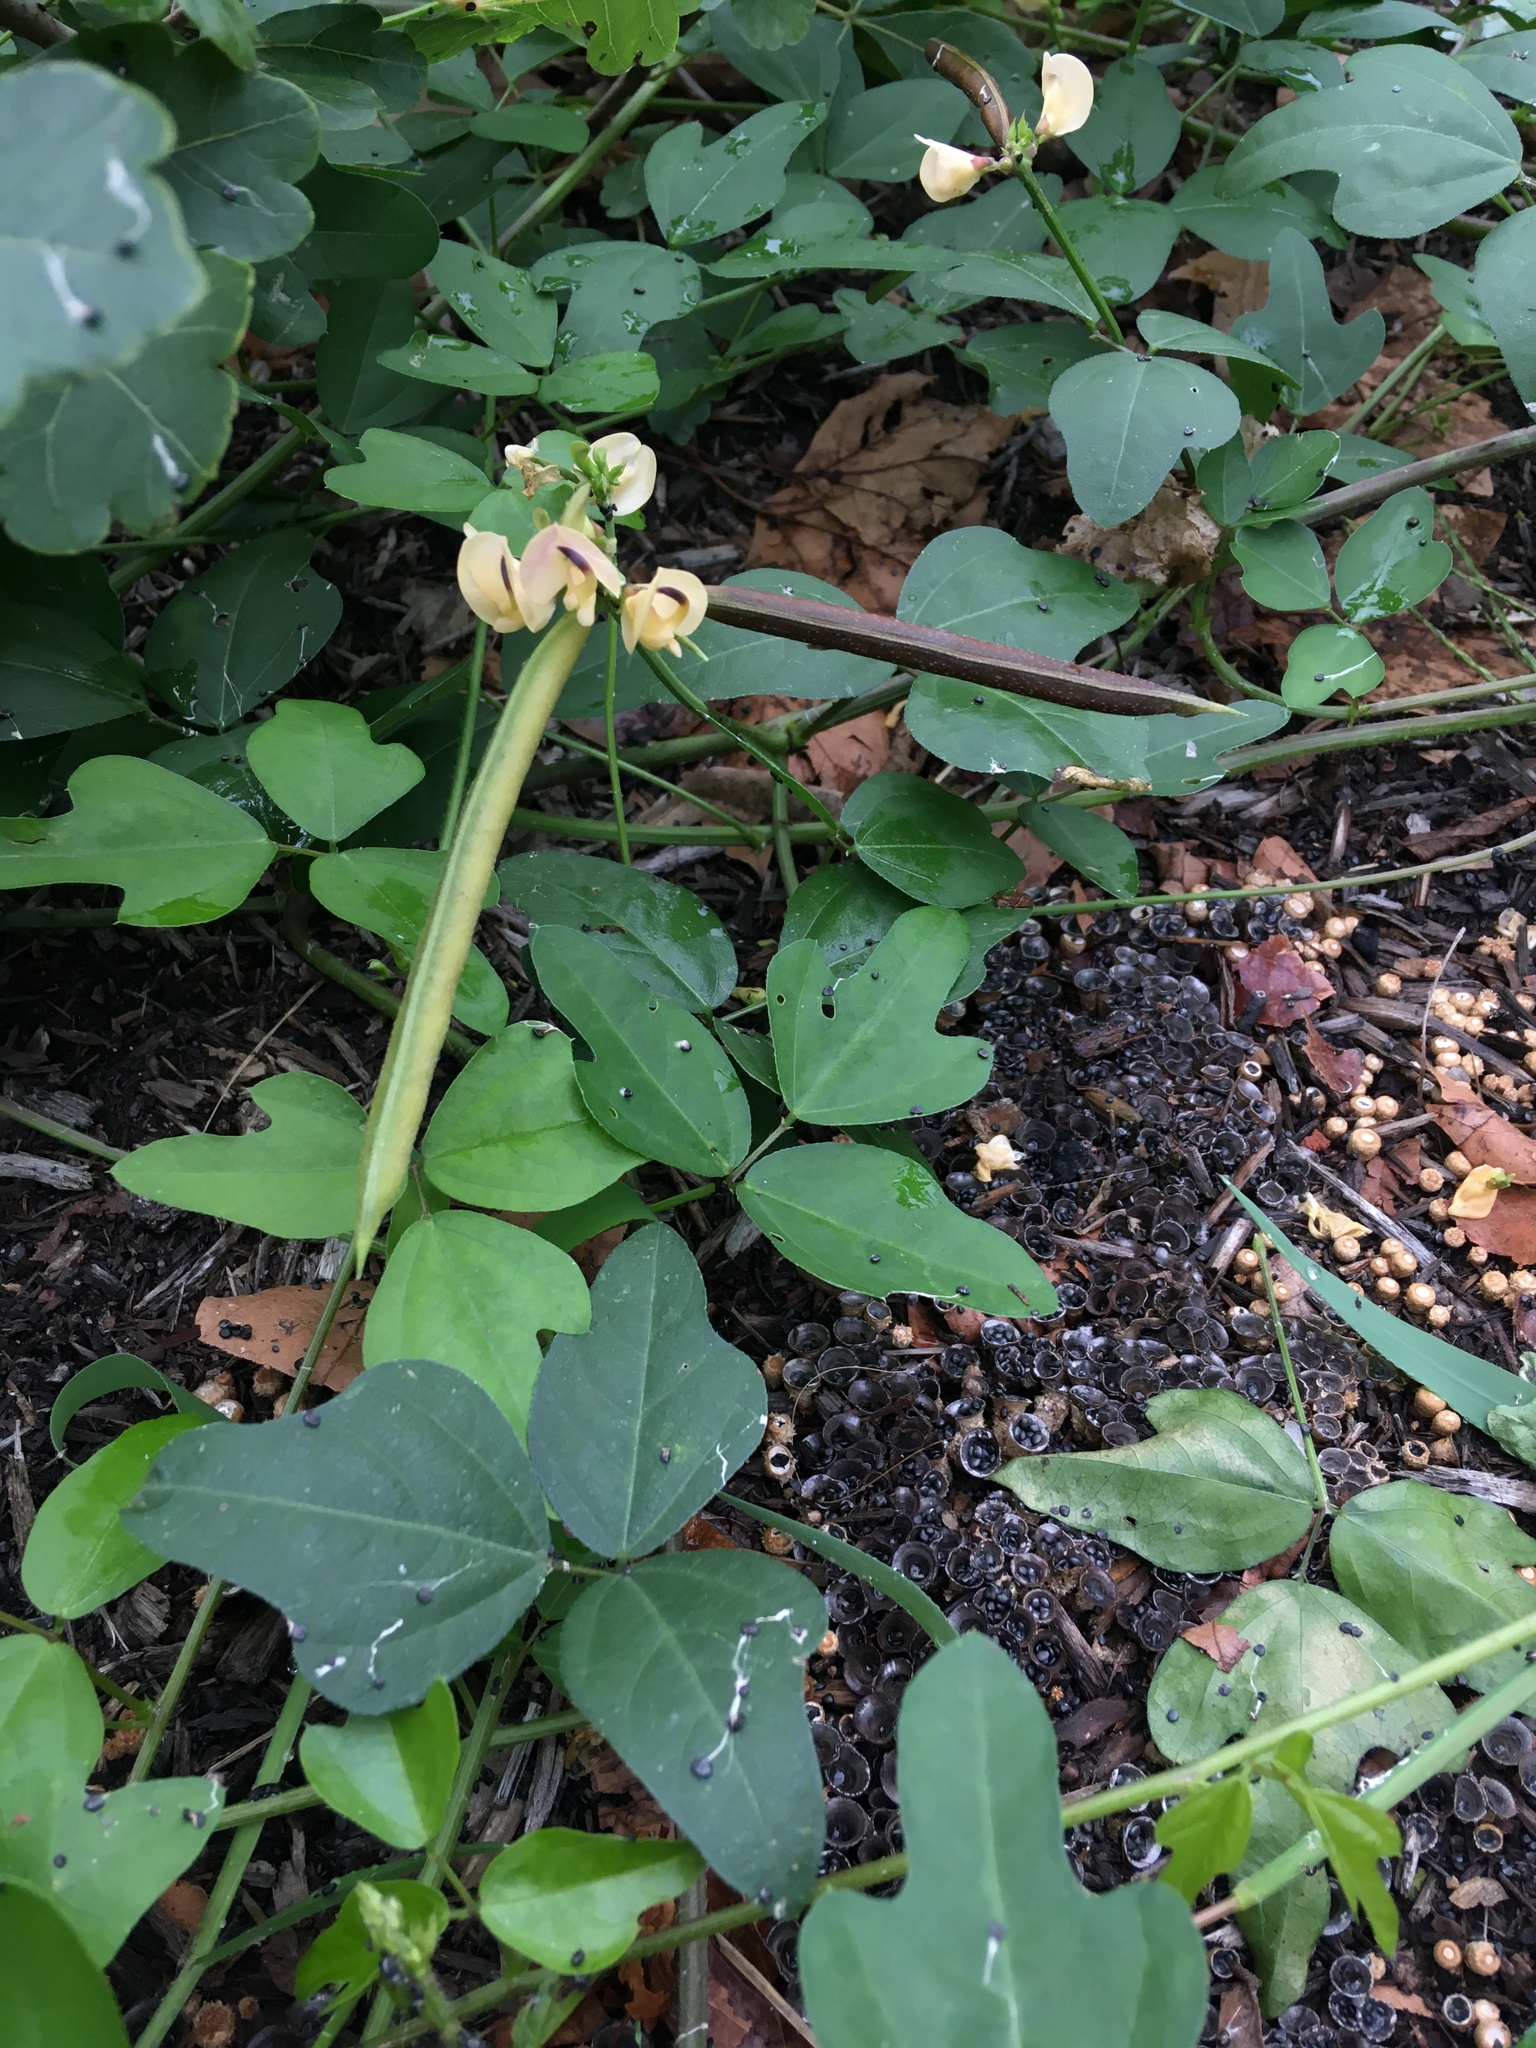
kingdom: Plantae
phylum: Tracheophyta
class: Magnoliopsida
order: Fabales
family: Fabaceae
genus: Strophostyles
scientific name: Strophostyles helvola
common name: Trailing wild bean
